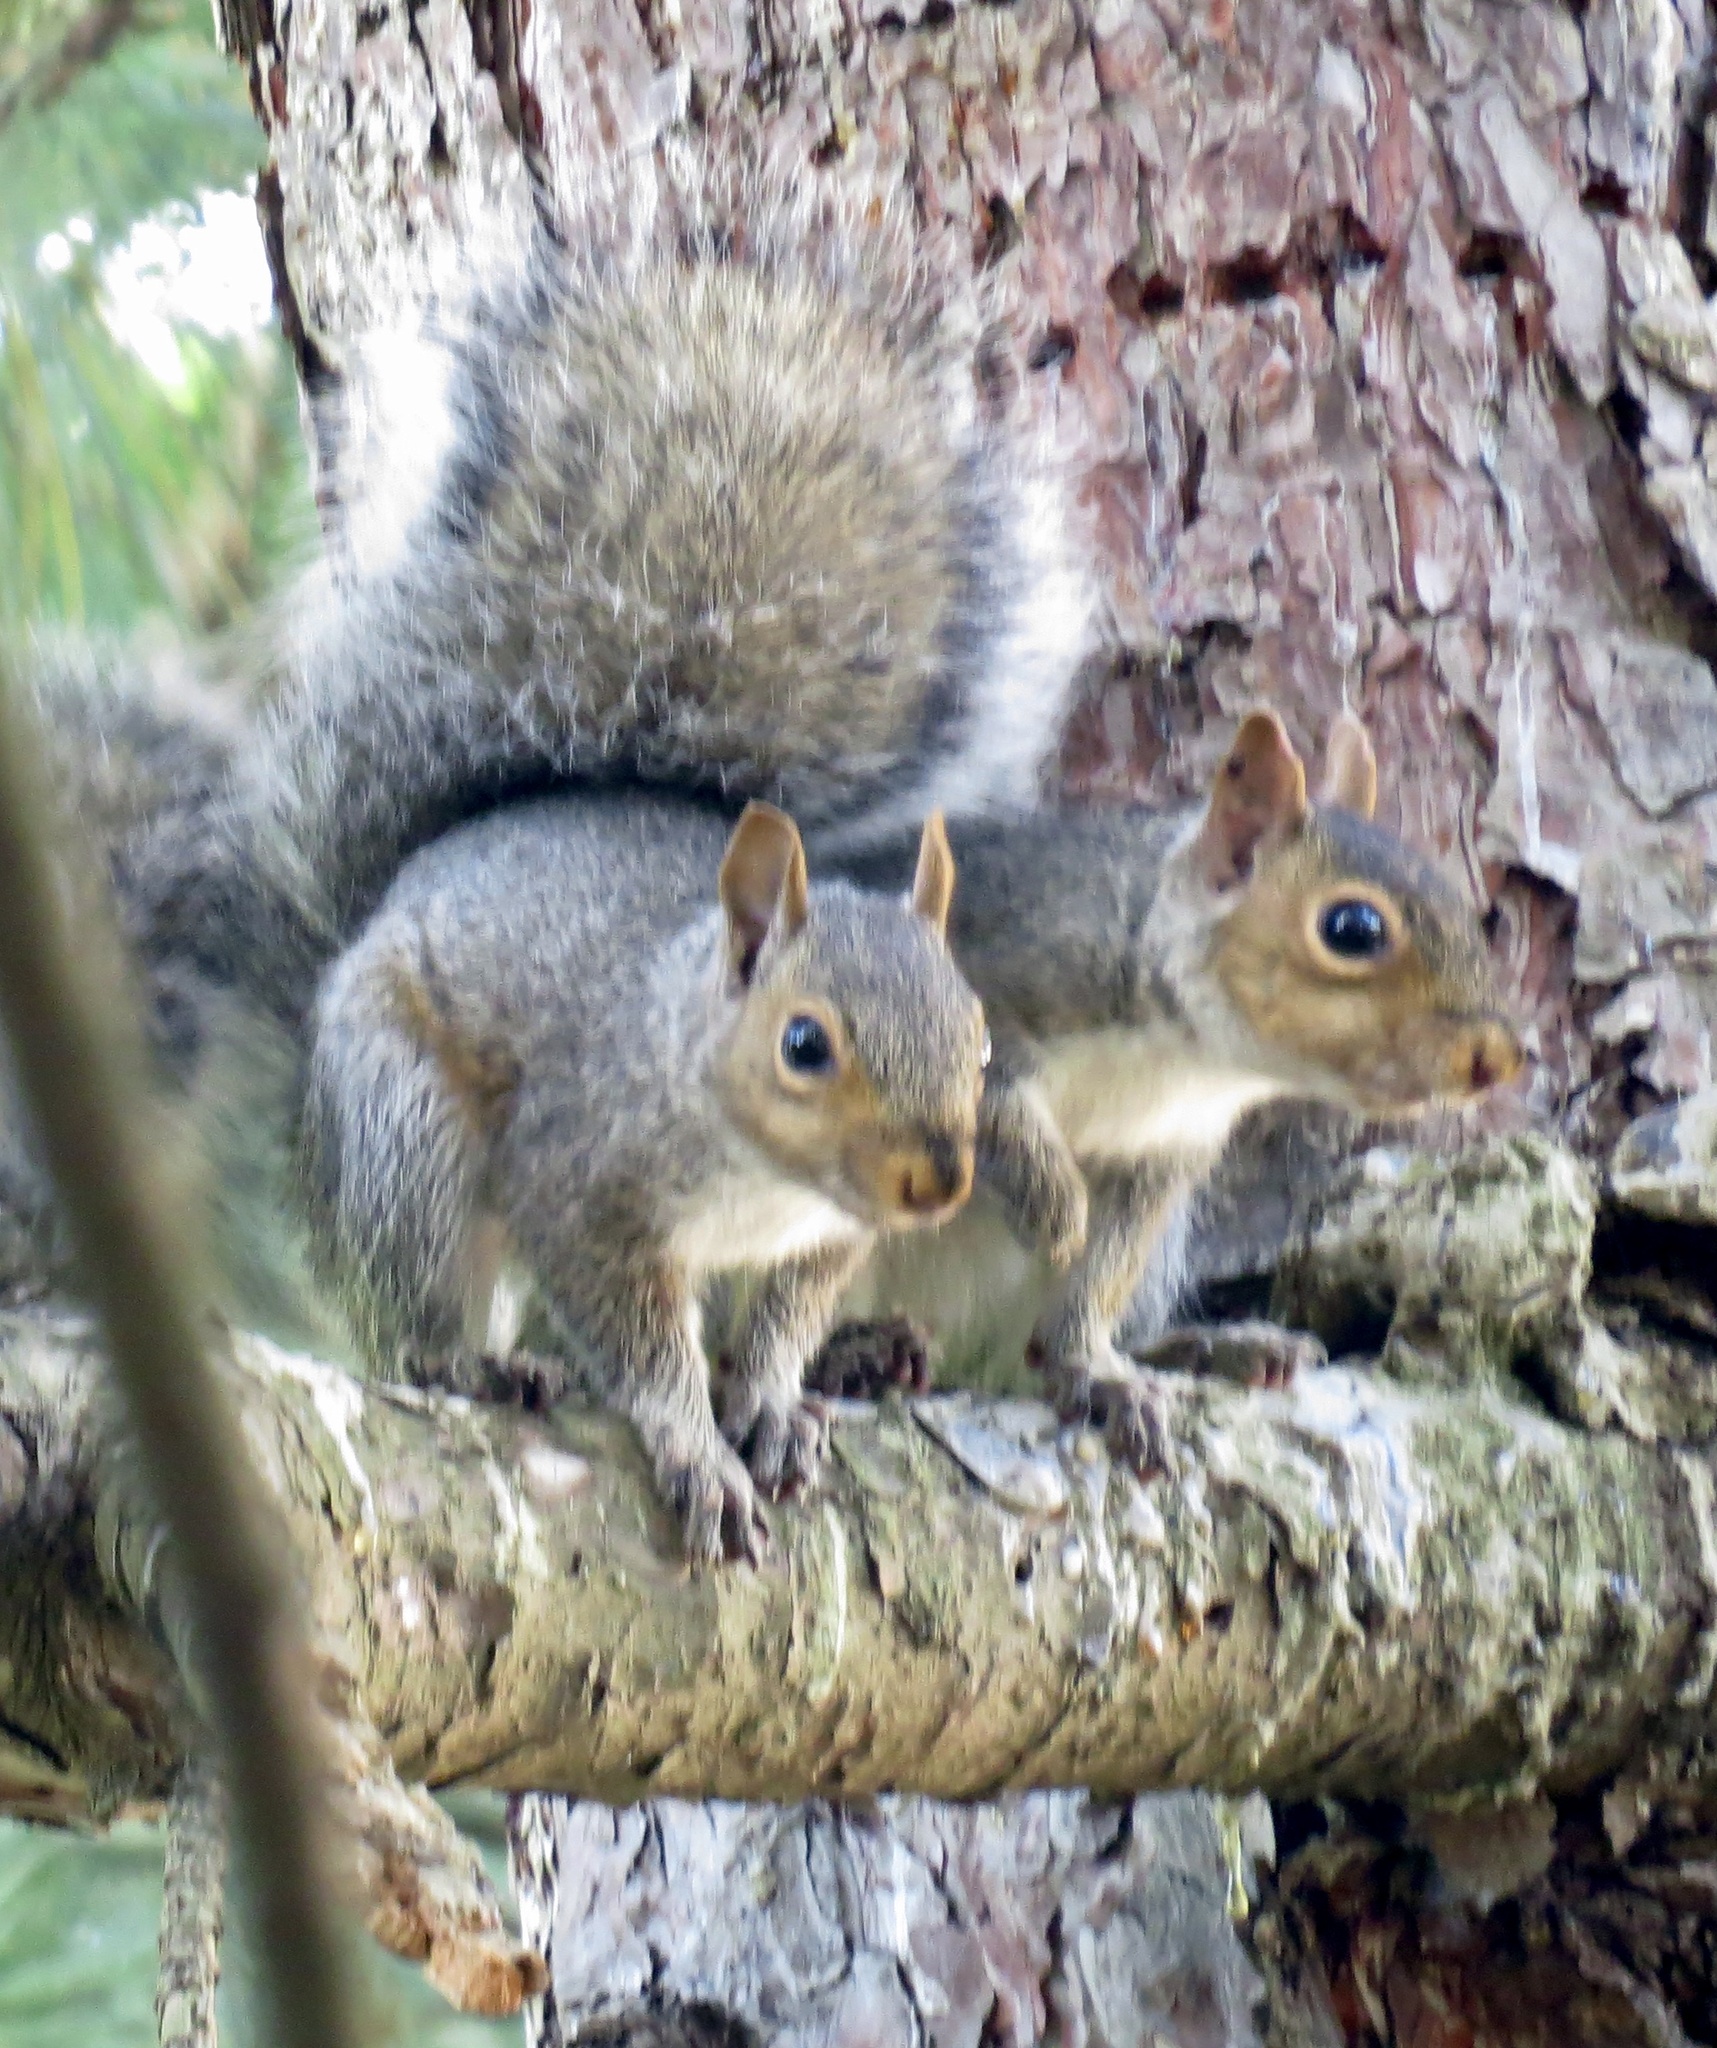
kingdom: Animalia
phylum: Chordata
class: Mammalia
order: Rodentia
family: Sciuridae
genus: Sciurus
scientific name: Sciurus carolinensis
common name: Eastern gray squirrel
